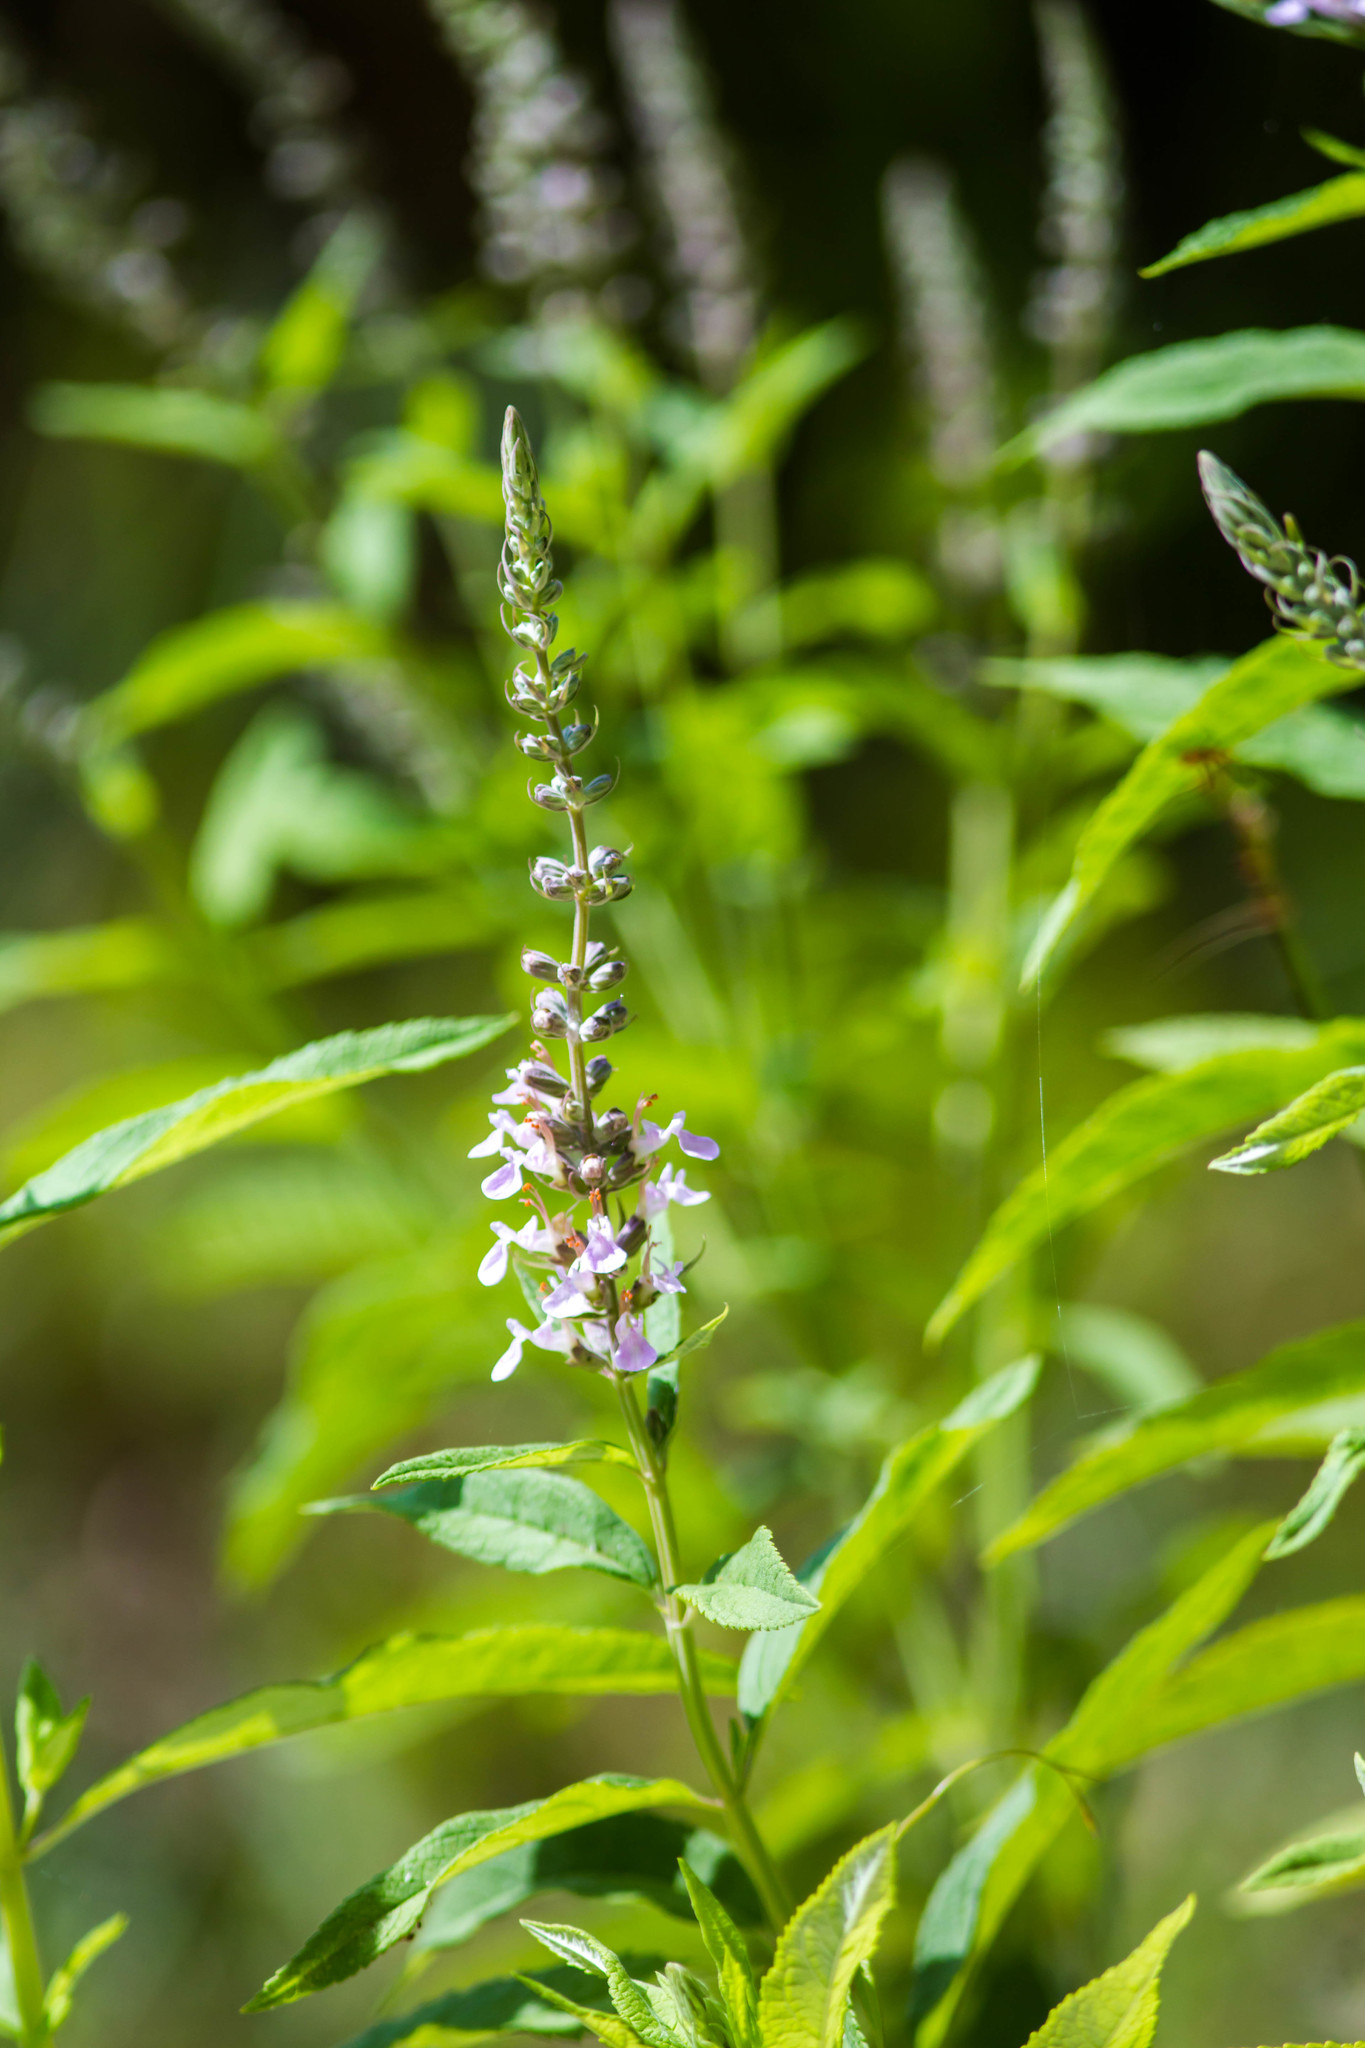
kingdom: Plantae
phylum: Tracheophyta
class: Magnoliopsida
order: Lamiales
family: Lamiaceae
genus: Teucrium
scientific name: Teucrium canadense
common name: American germander
